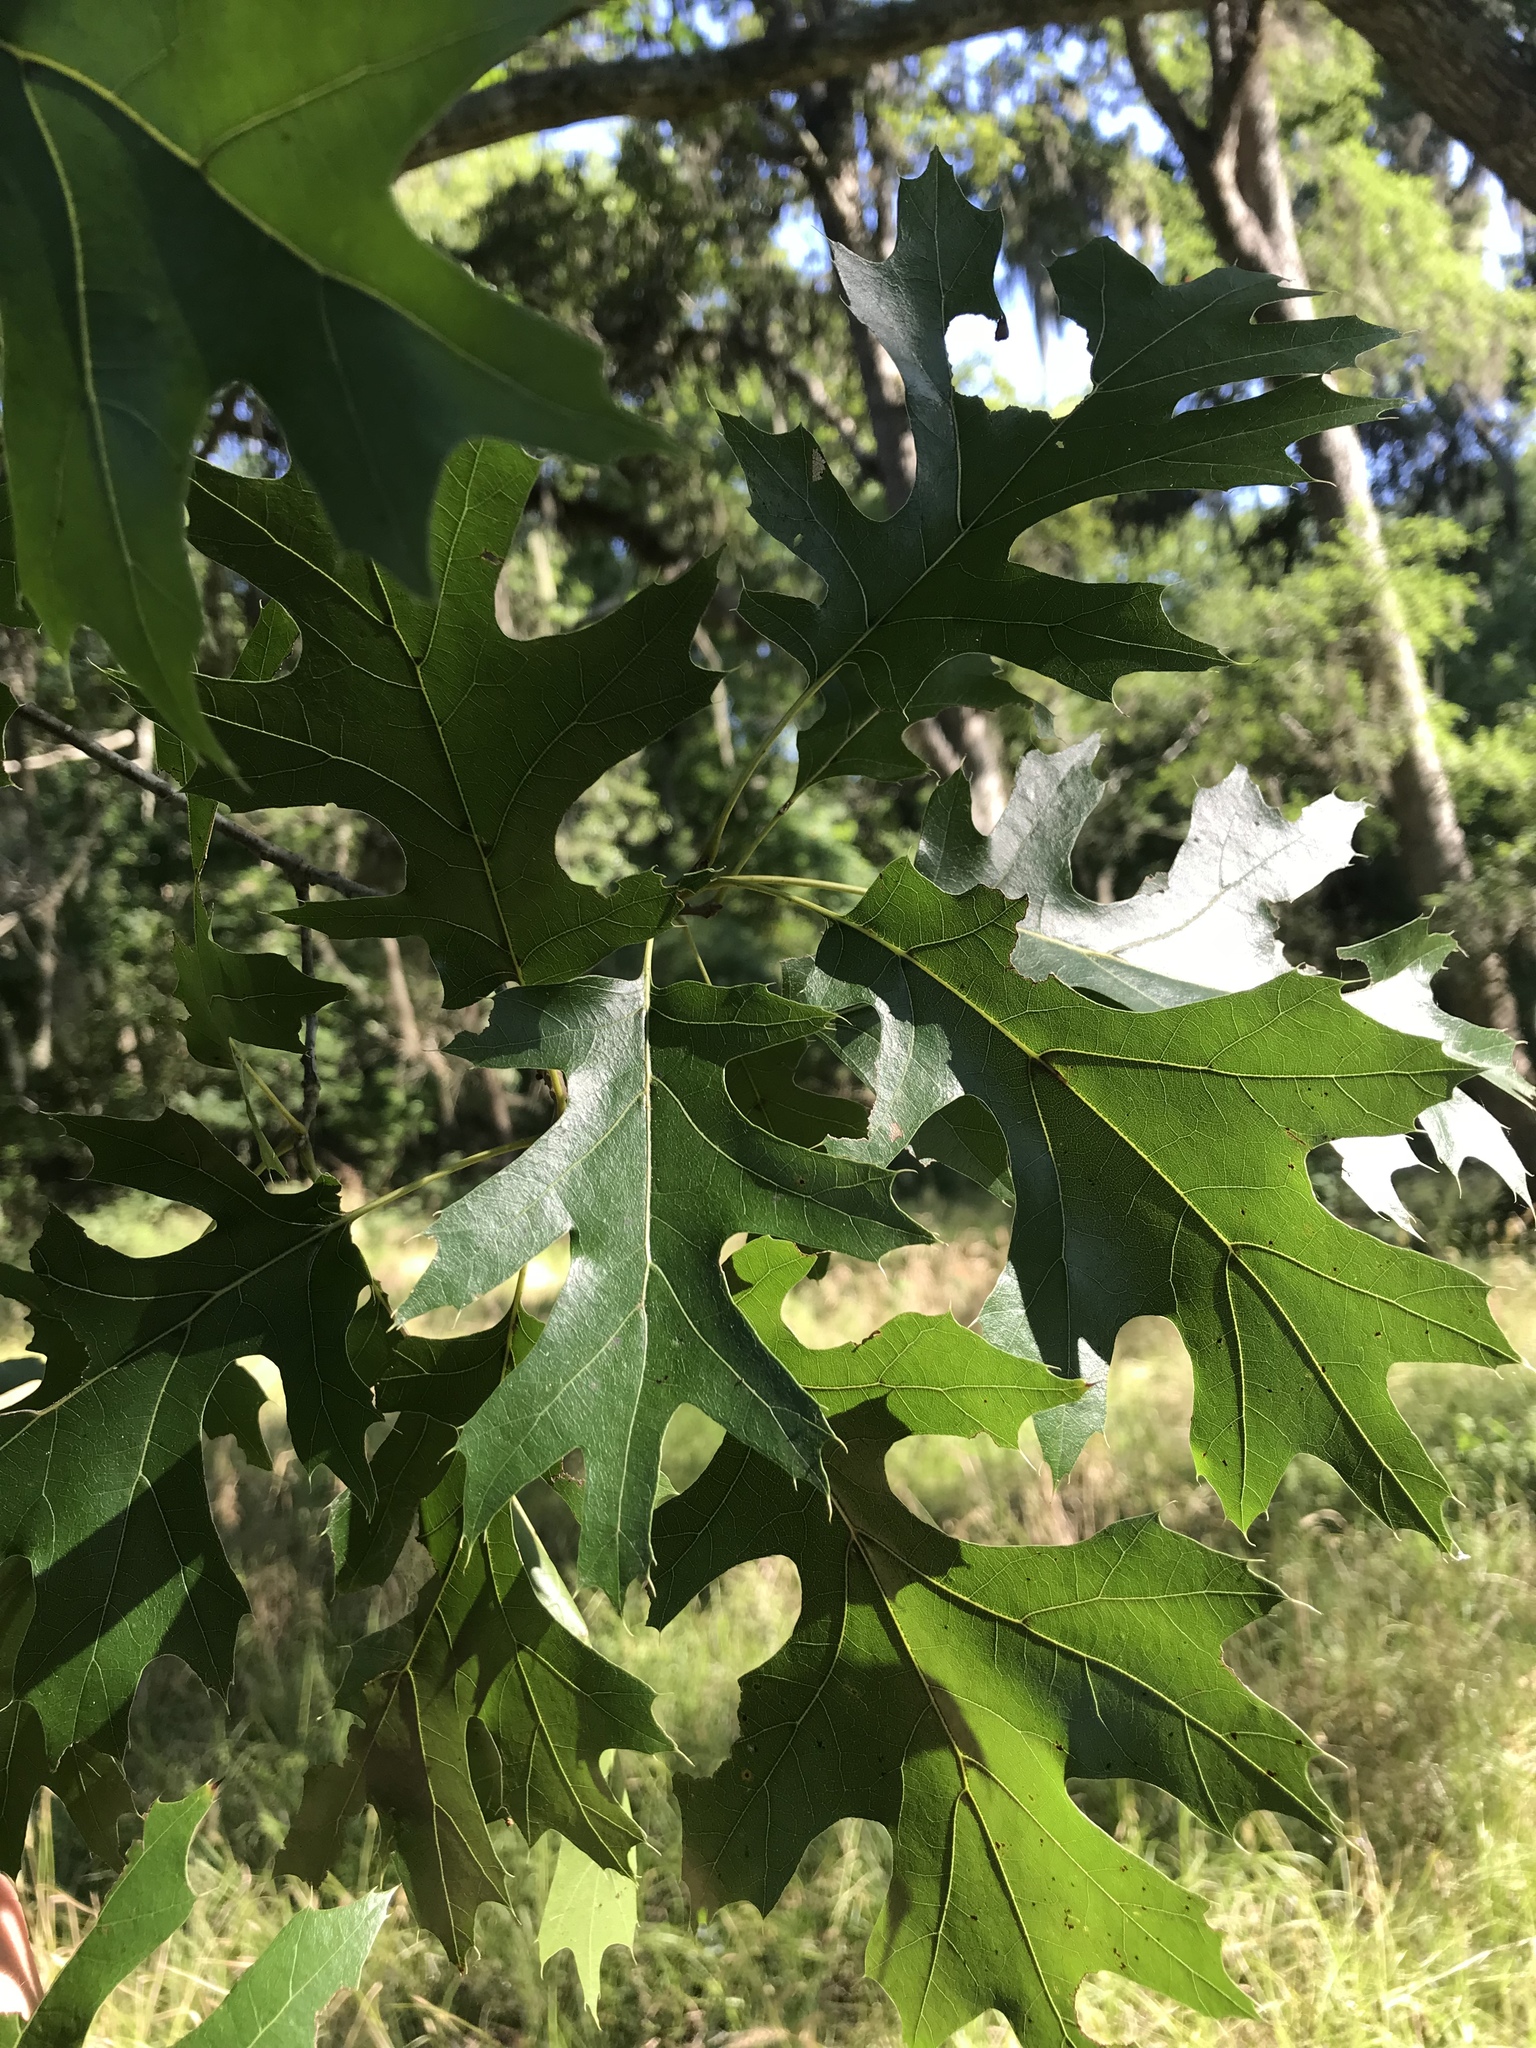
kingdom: Plantae
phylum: Tracheophyta
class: Magnoliopsida
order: Fagales
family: Fagaceae
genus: Quercus
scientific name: Quercus shumardii
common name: Shumard oak
